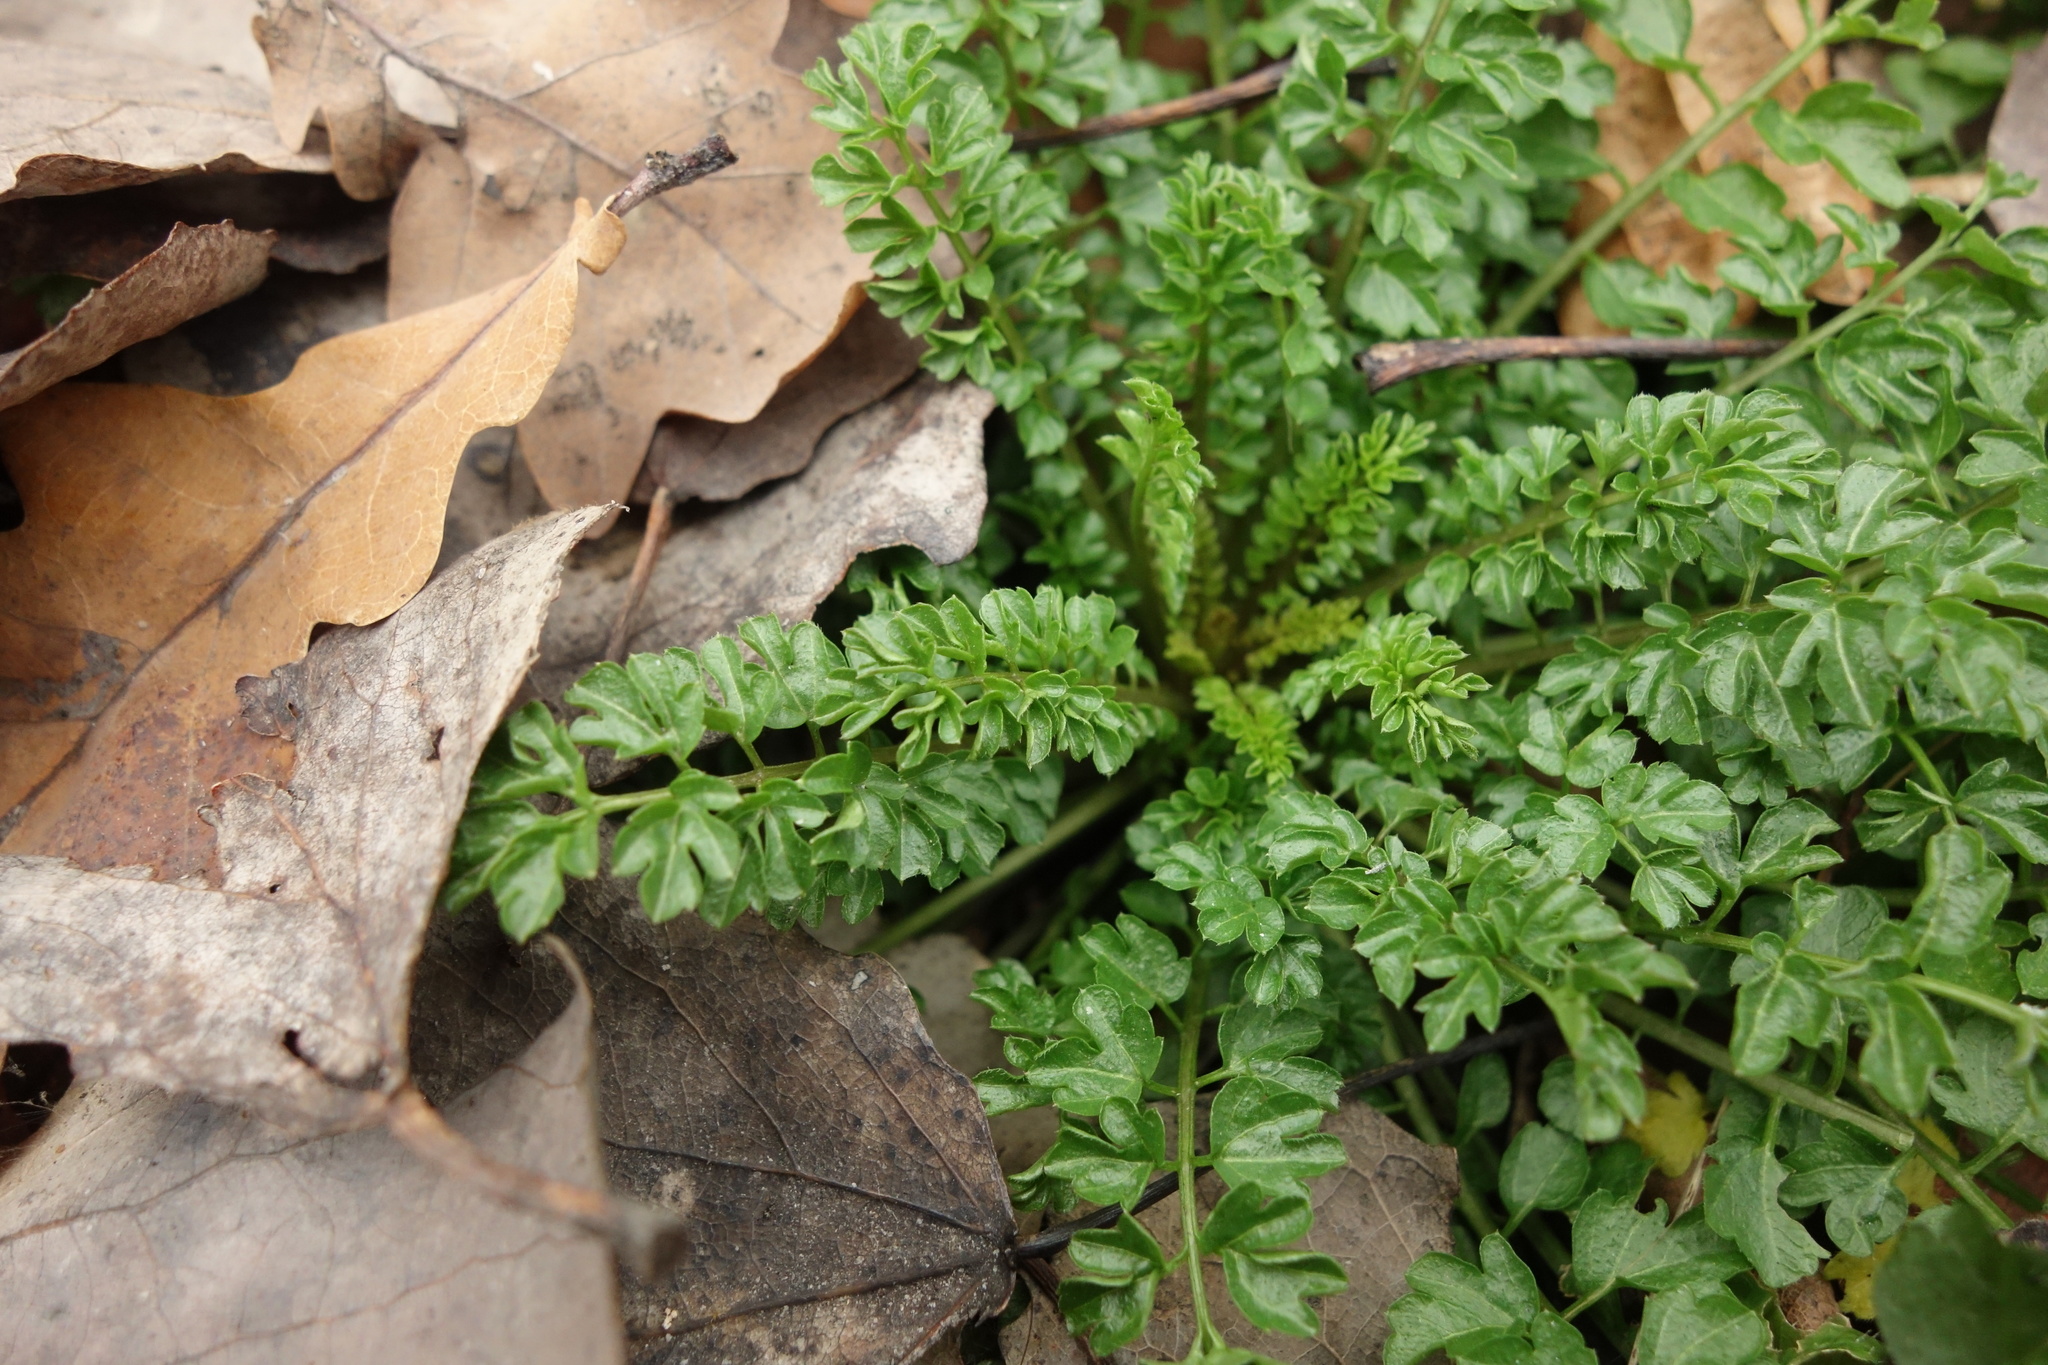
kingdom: Plantae
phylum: Tracheophyta
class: Magnoliopsida
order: Brassicales
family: Brassicaceae
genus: Cardamine
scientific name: Cardamine impatiens
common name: Narrow-leaved bitter-cress
